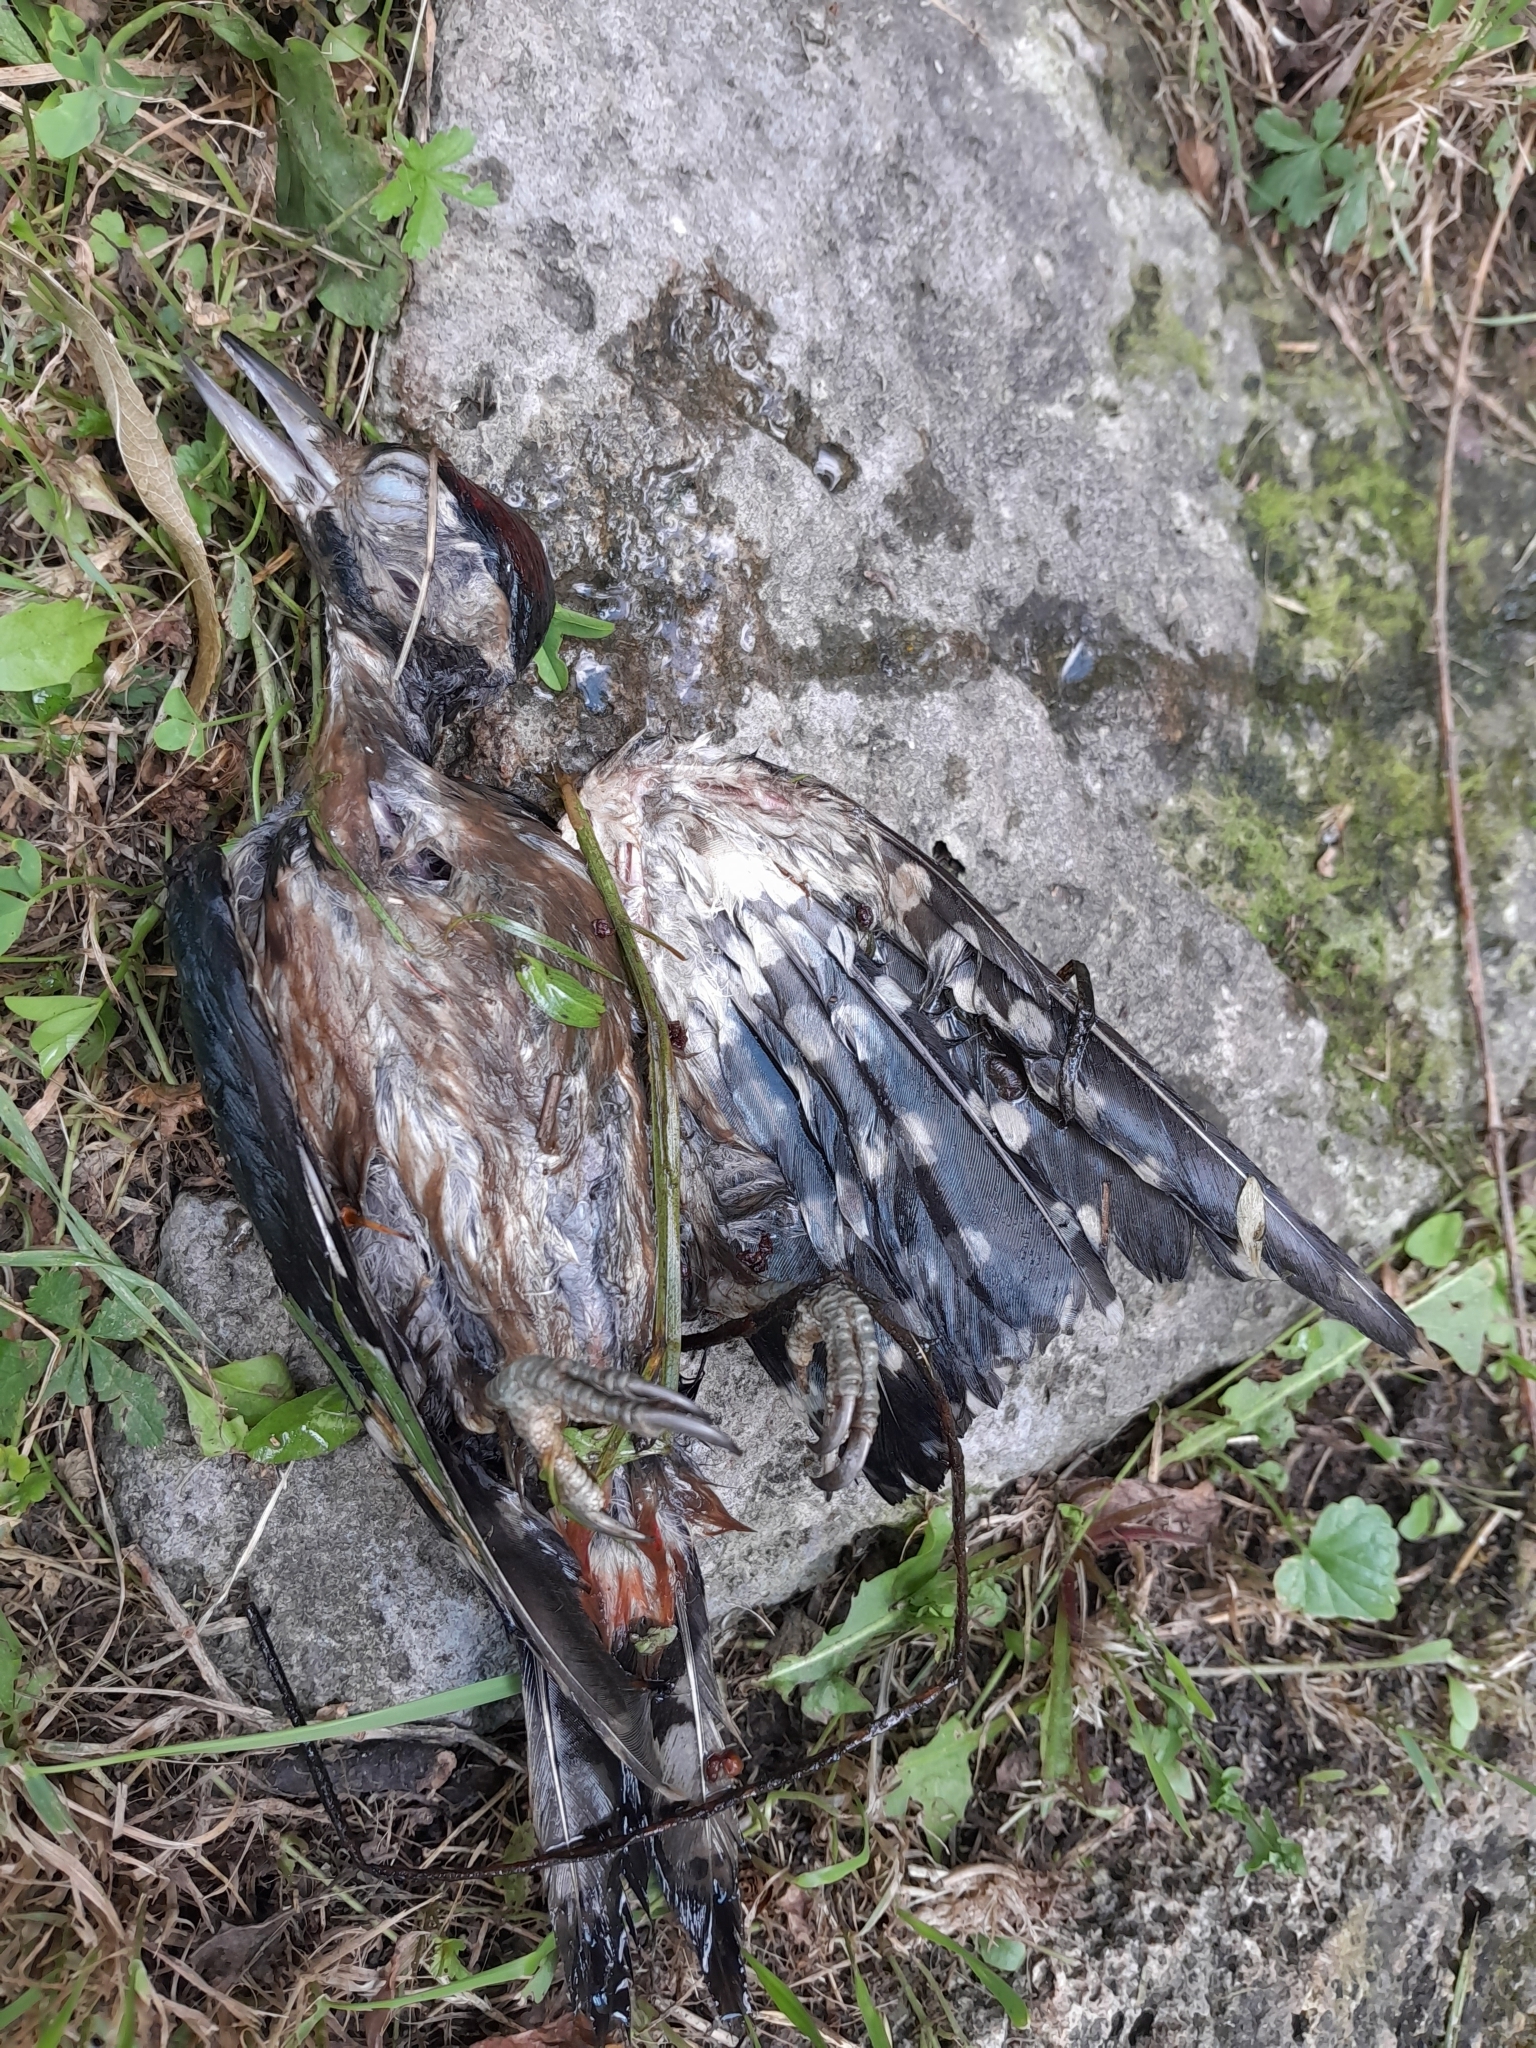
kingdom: Animalia
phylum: Chordata
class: Aves
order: Piciformes
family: Picidae
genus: Dendrocopos
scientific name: Dendrocopos major
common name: Great spotted woodpecker
